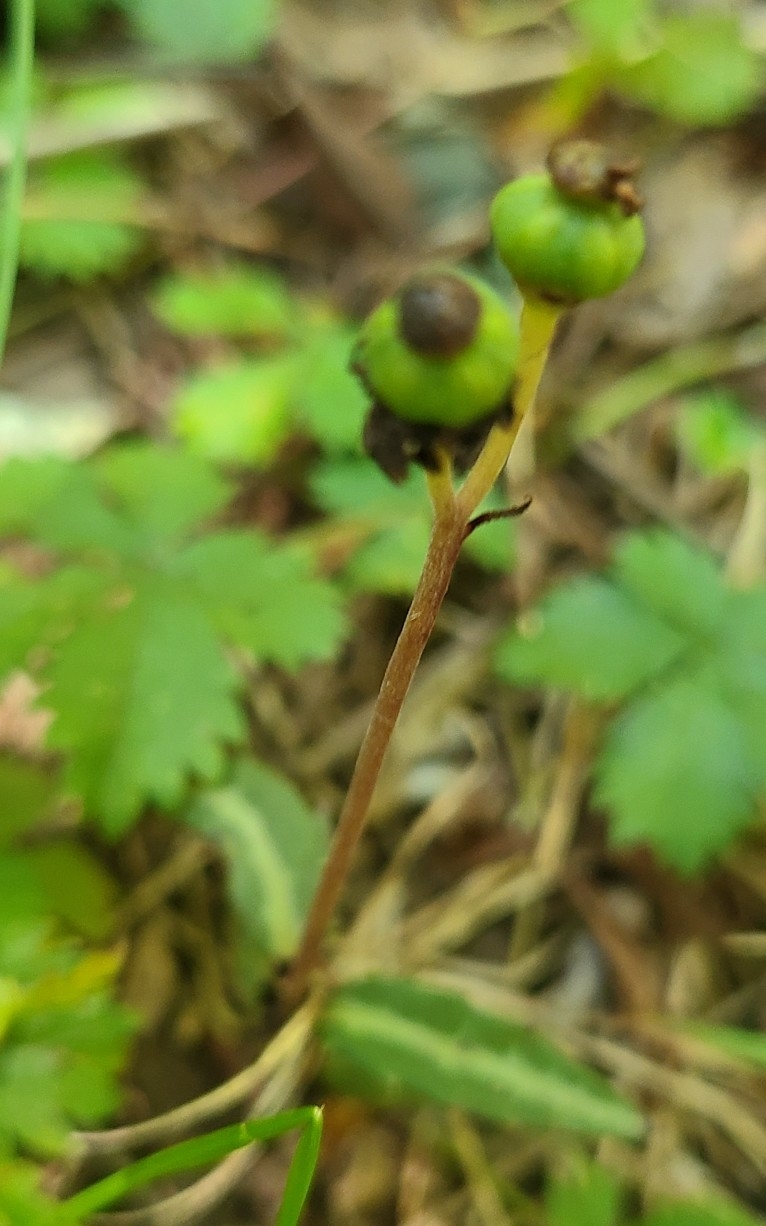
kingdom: Plantae
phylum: Tracheophyta
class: Magnoliopsida
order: Ericales
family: Ericaceae
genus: Chimaphila
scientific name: Chimaphila maculata
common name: Spotted pipsissewa
